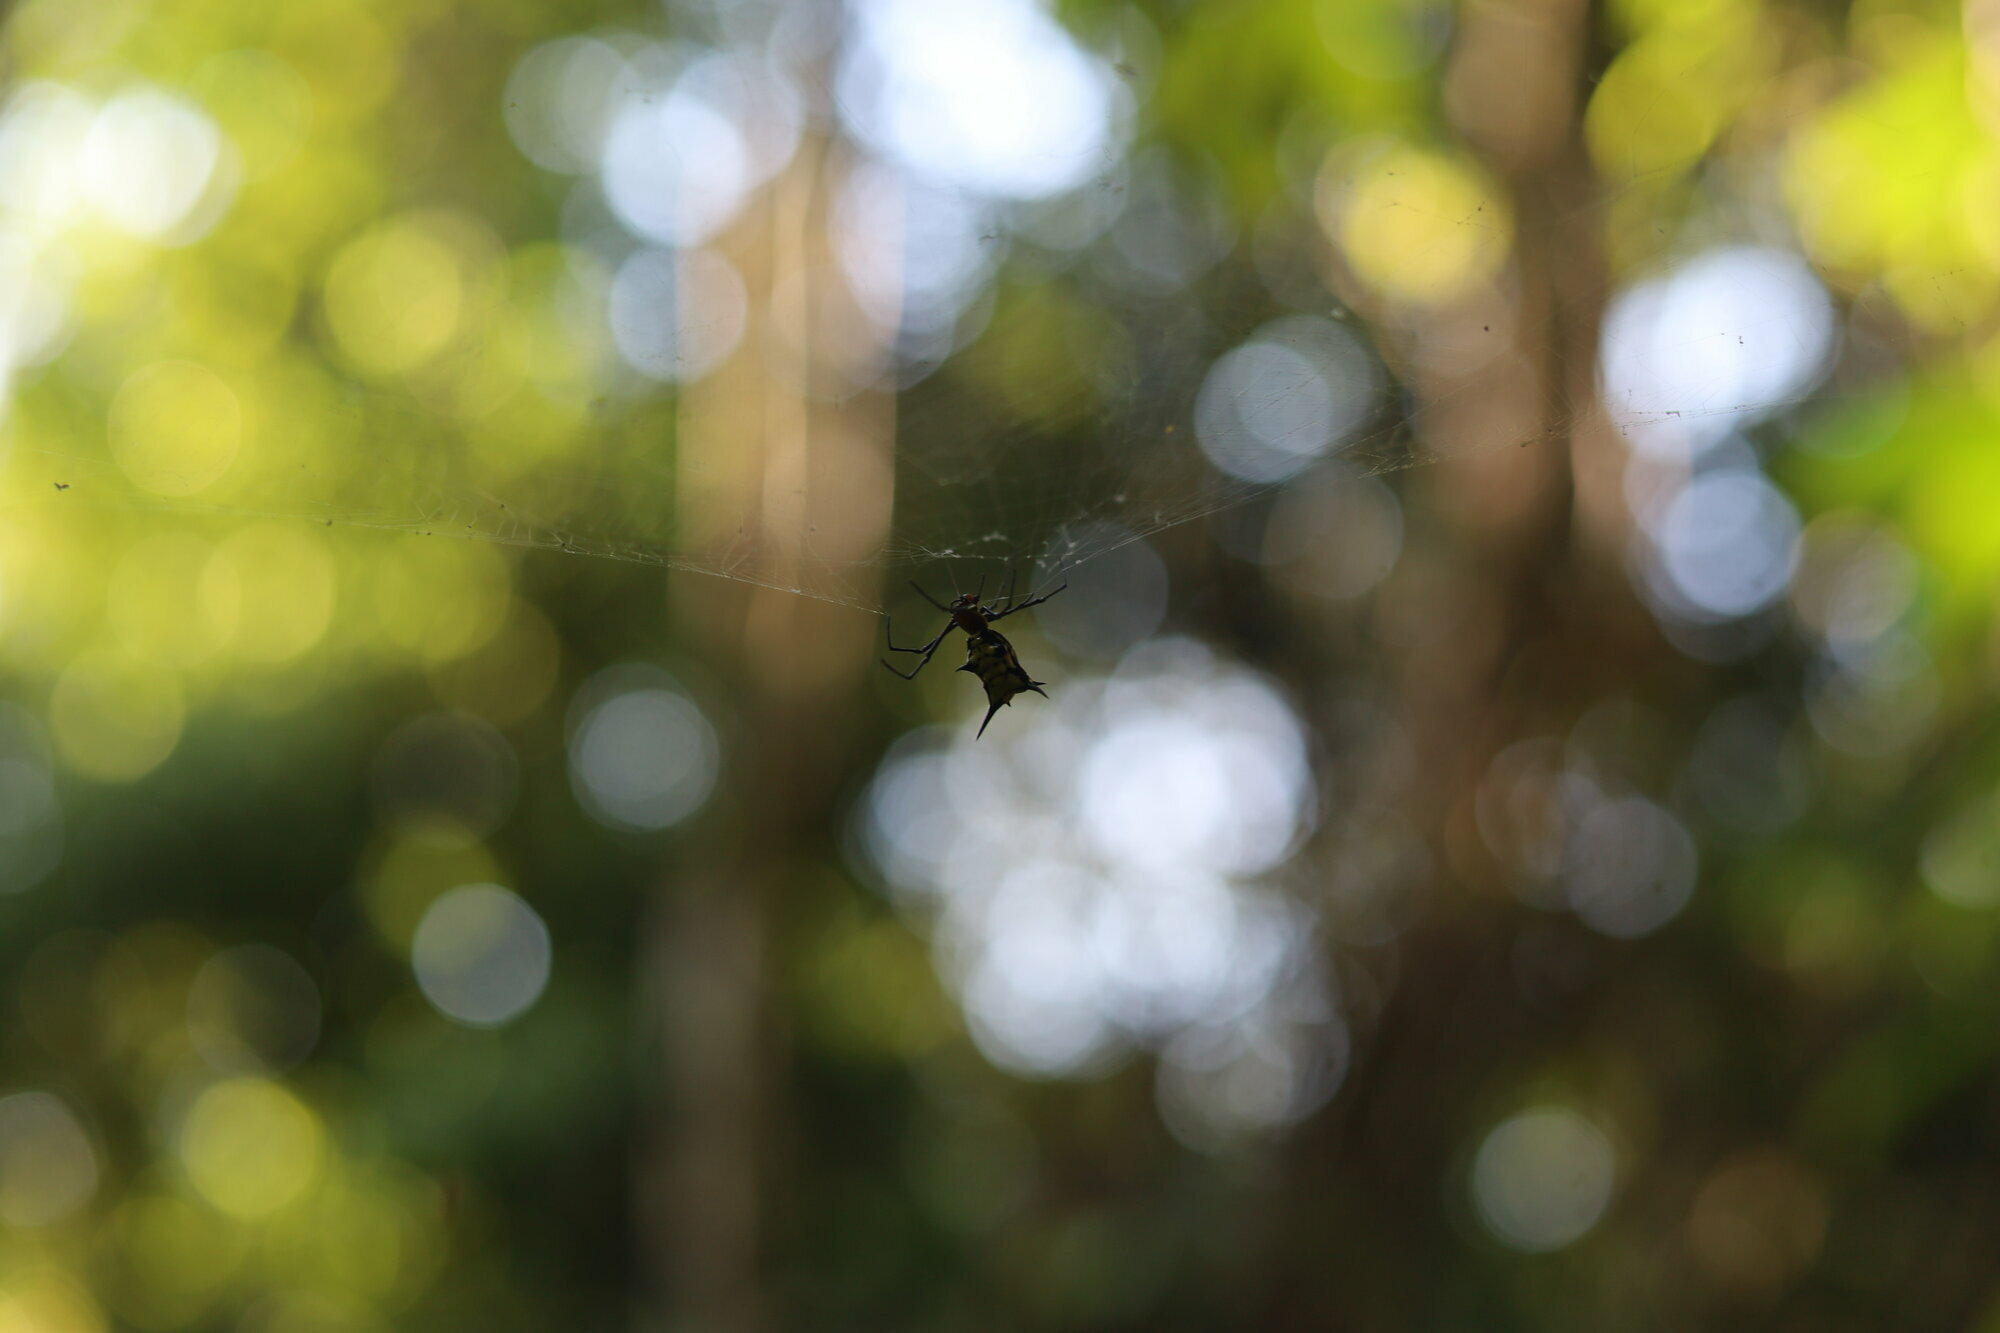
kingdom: Animalia
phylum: Arthropoda
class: Arachnida
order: Araneae
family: Araneidae
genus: Micrathena
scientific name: Micrathena miles
